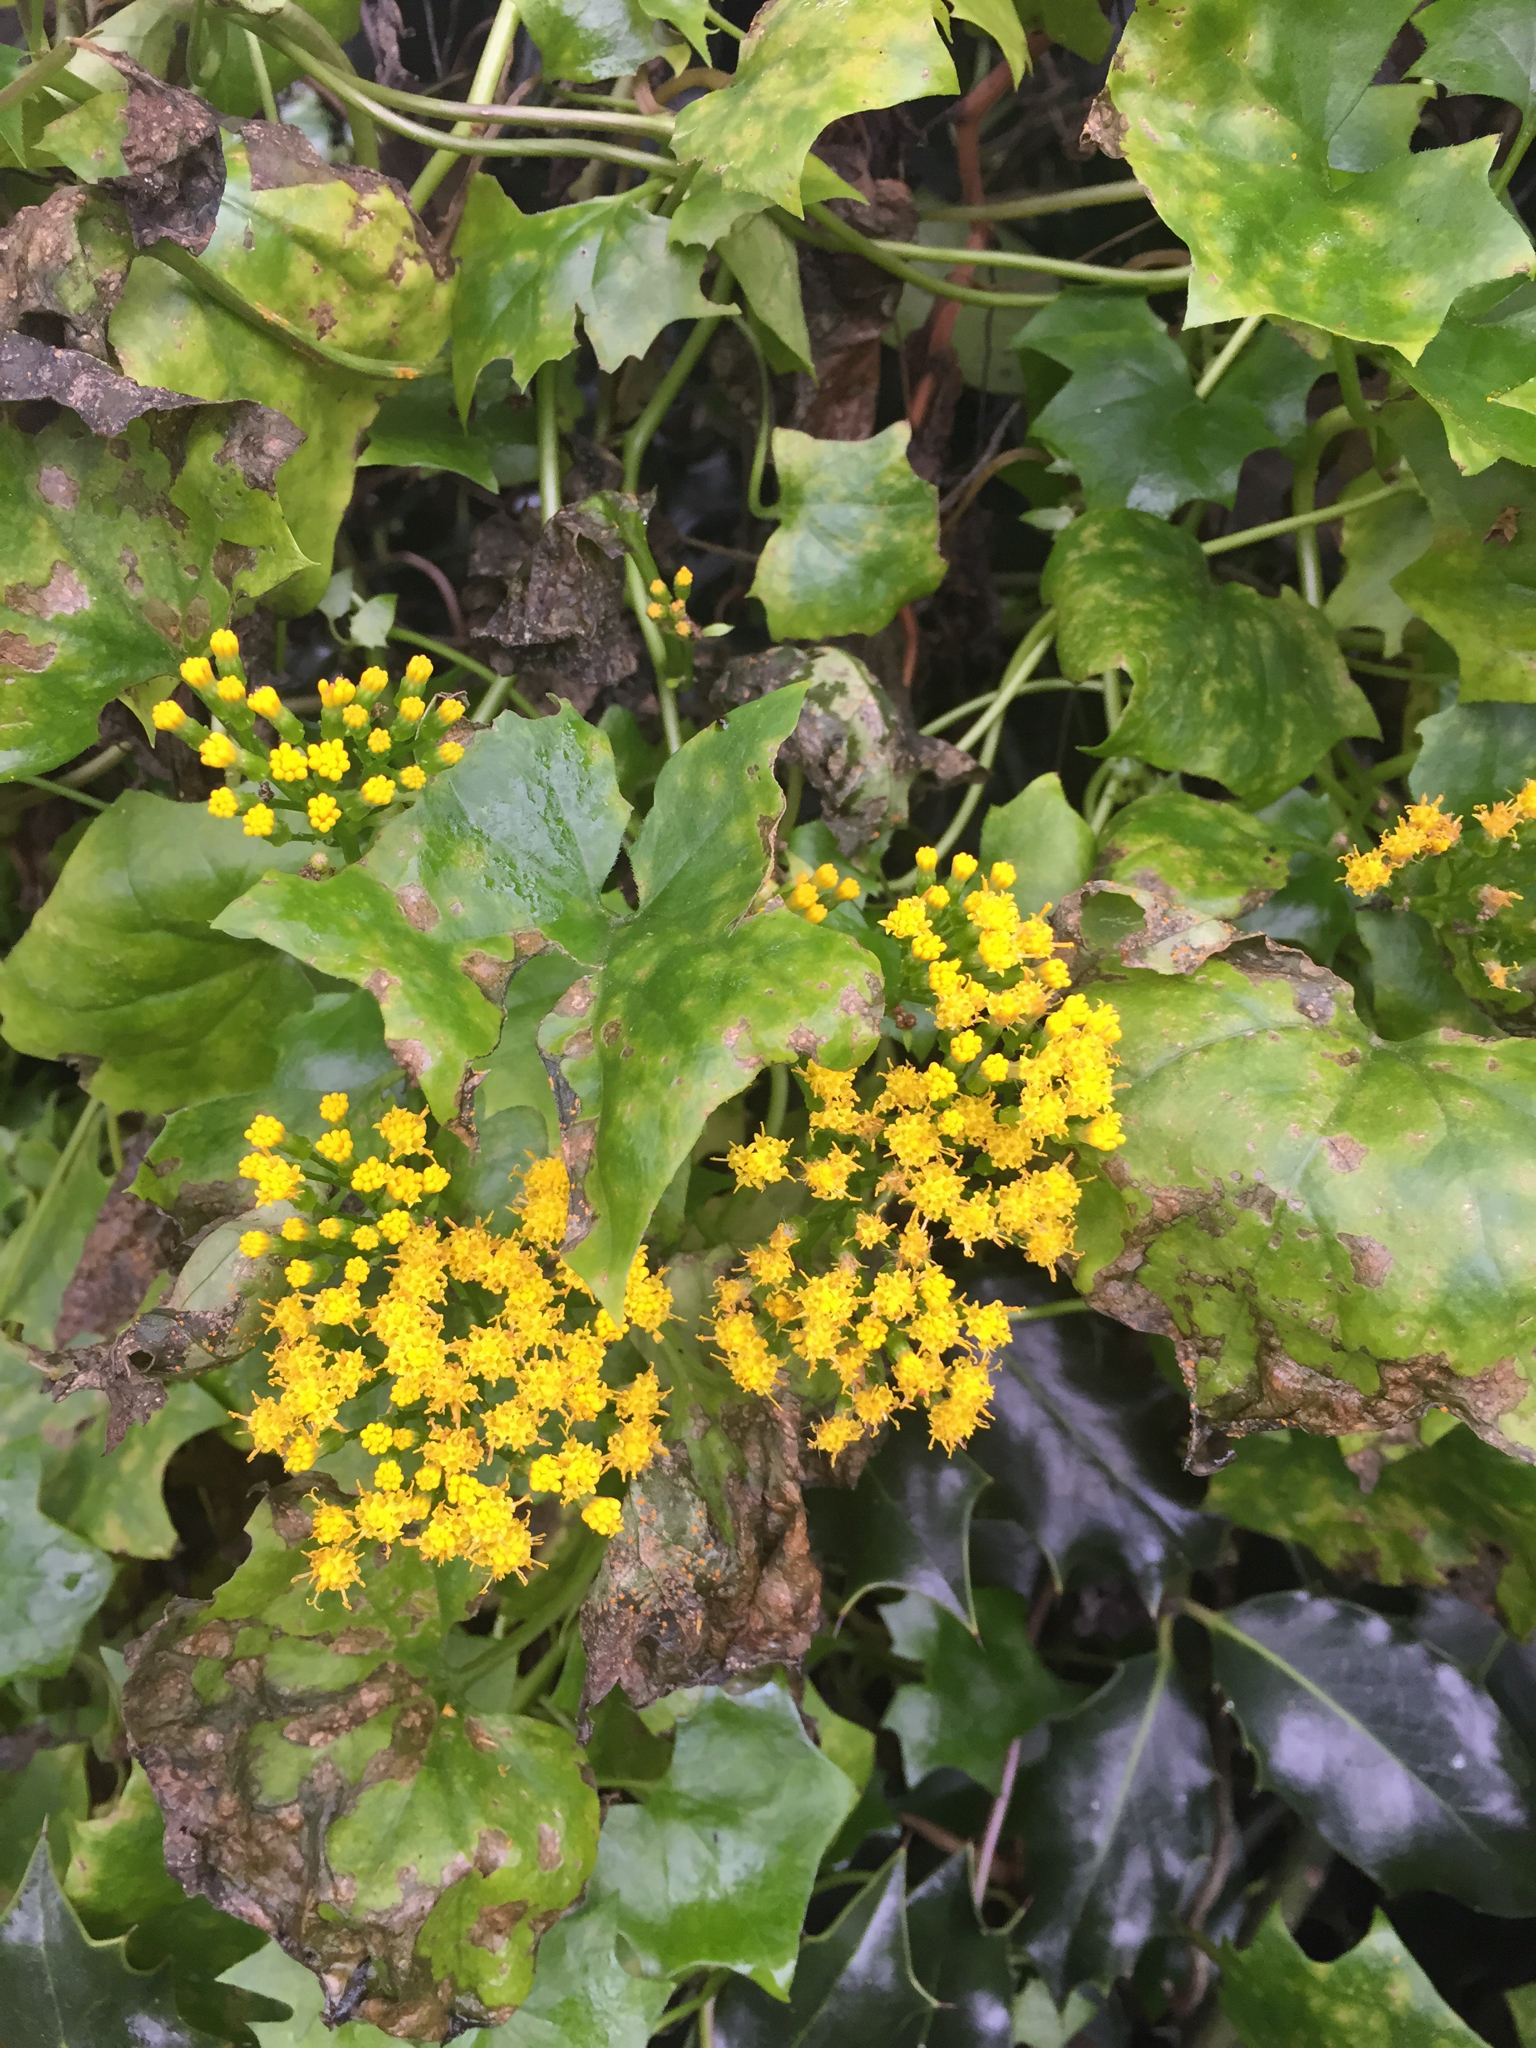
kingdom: Plantae
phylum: Tracheophyta
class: Magnoliopsida
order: Asterales
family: Asteraceae
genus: Delairea
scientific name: Delairea odorata
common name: Cape-ivy
